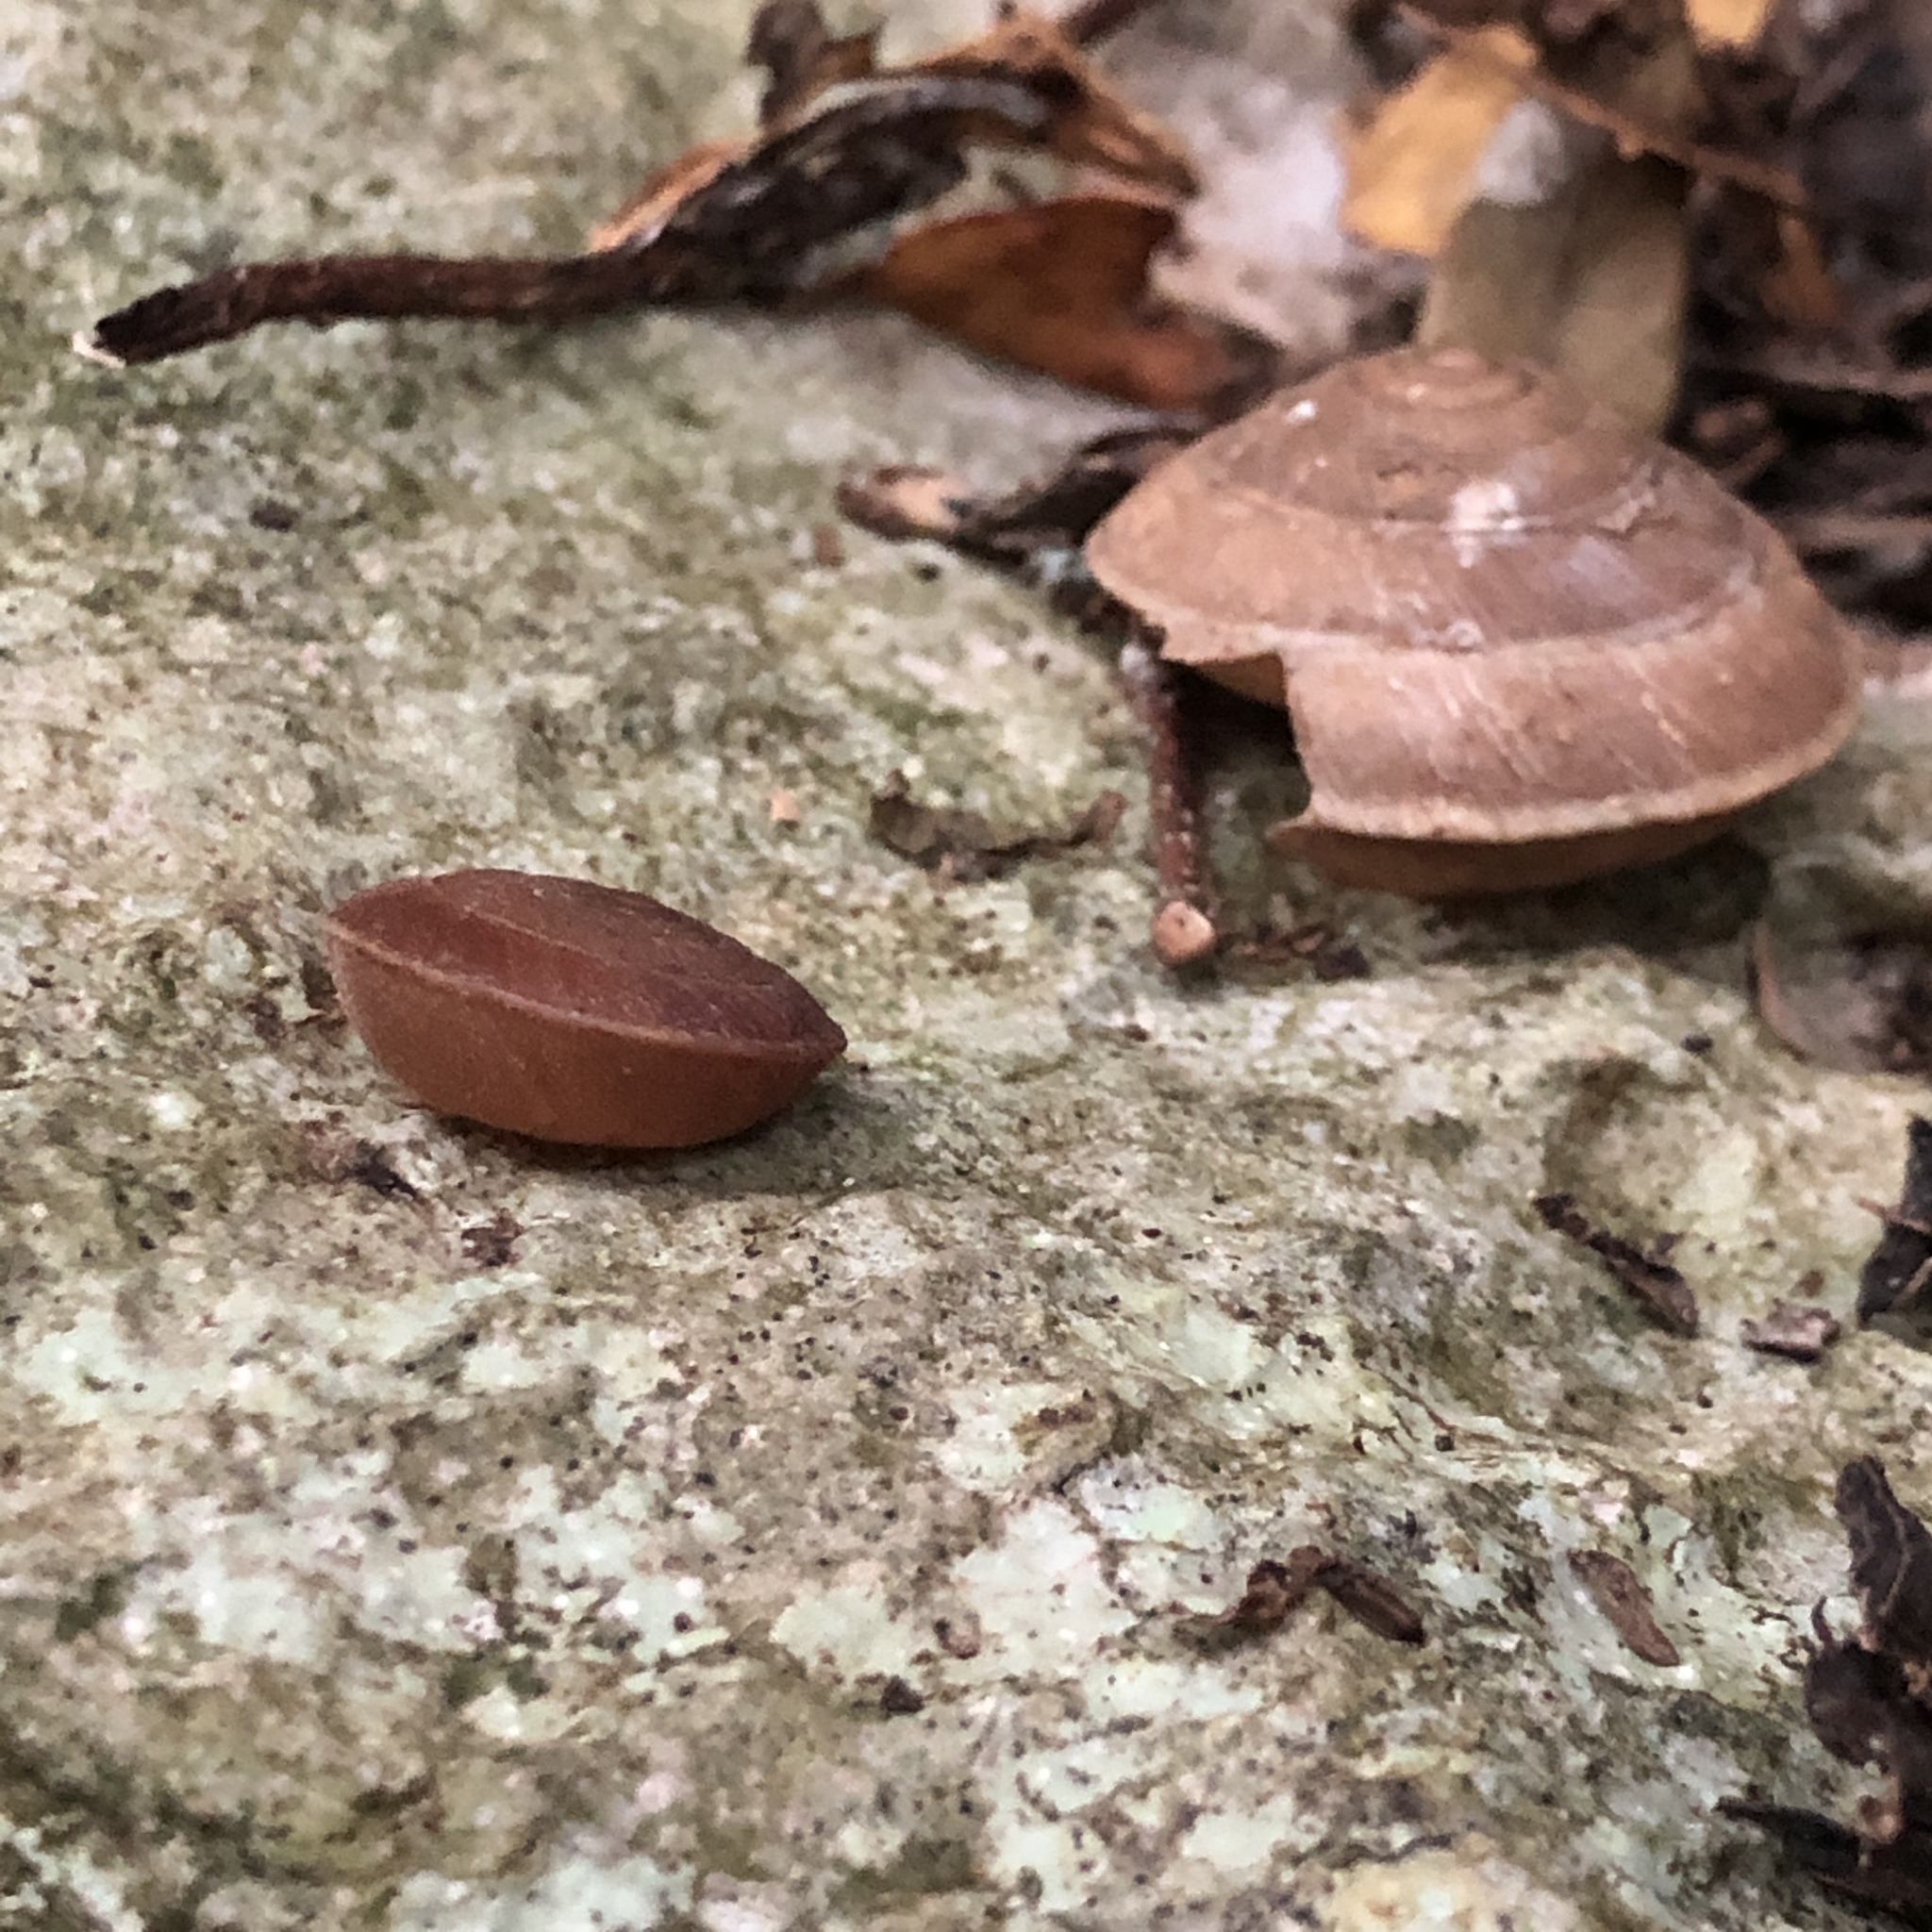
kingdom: Animalia
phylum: Mollusca
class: Gastropoda
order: Stylommatophora
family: Camaenidae
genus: Plectotropis
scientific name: Plectotropis marginata
